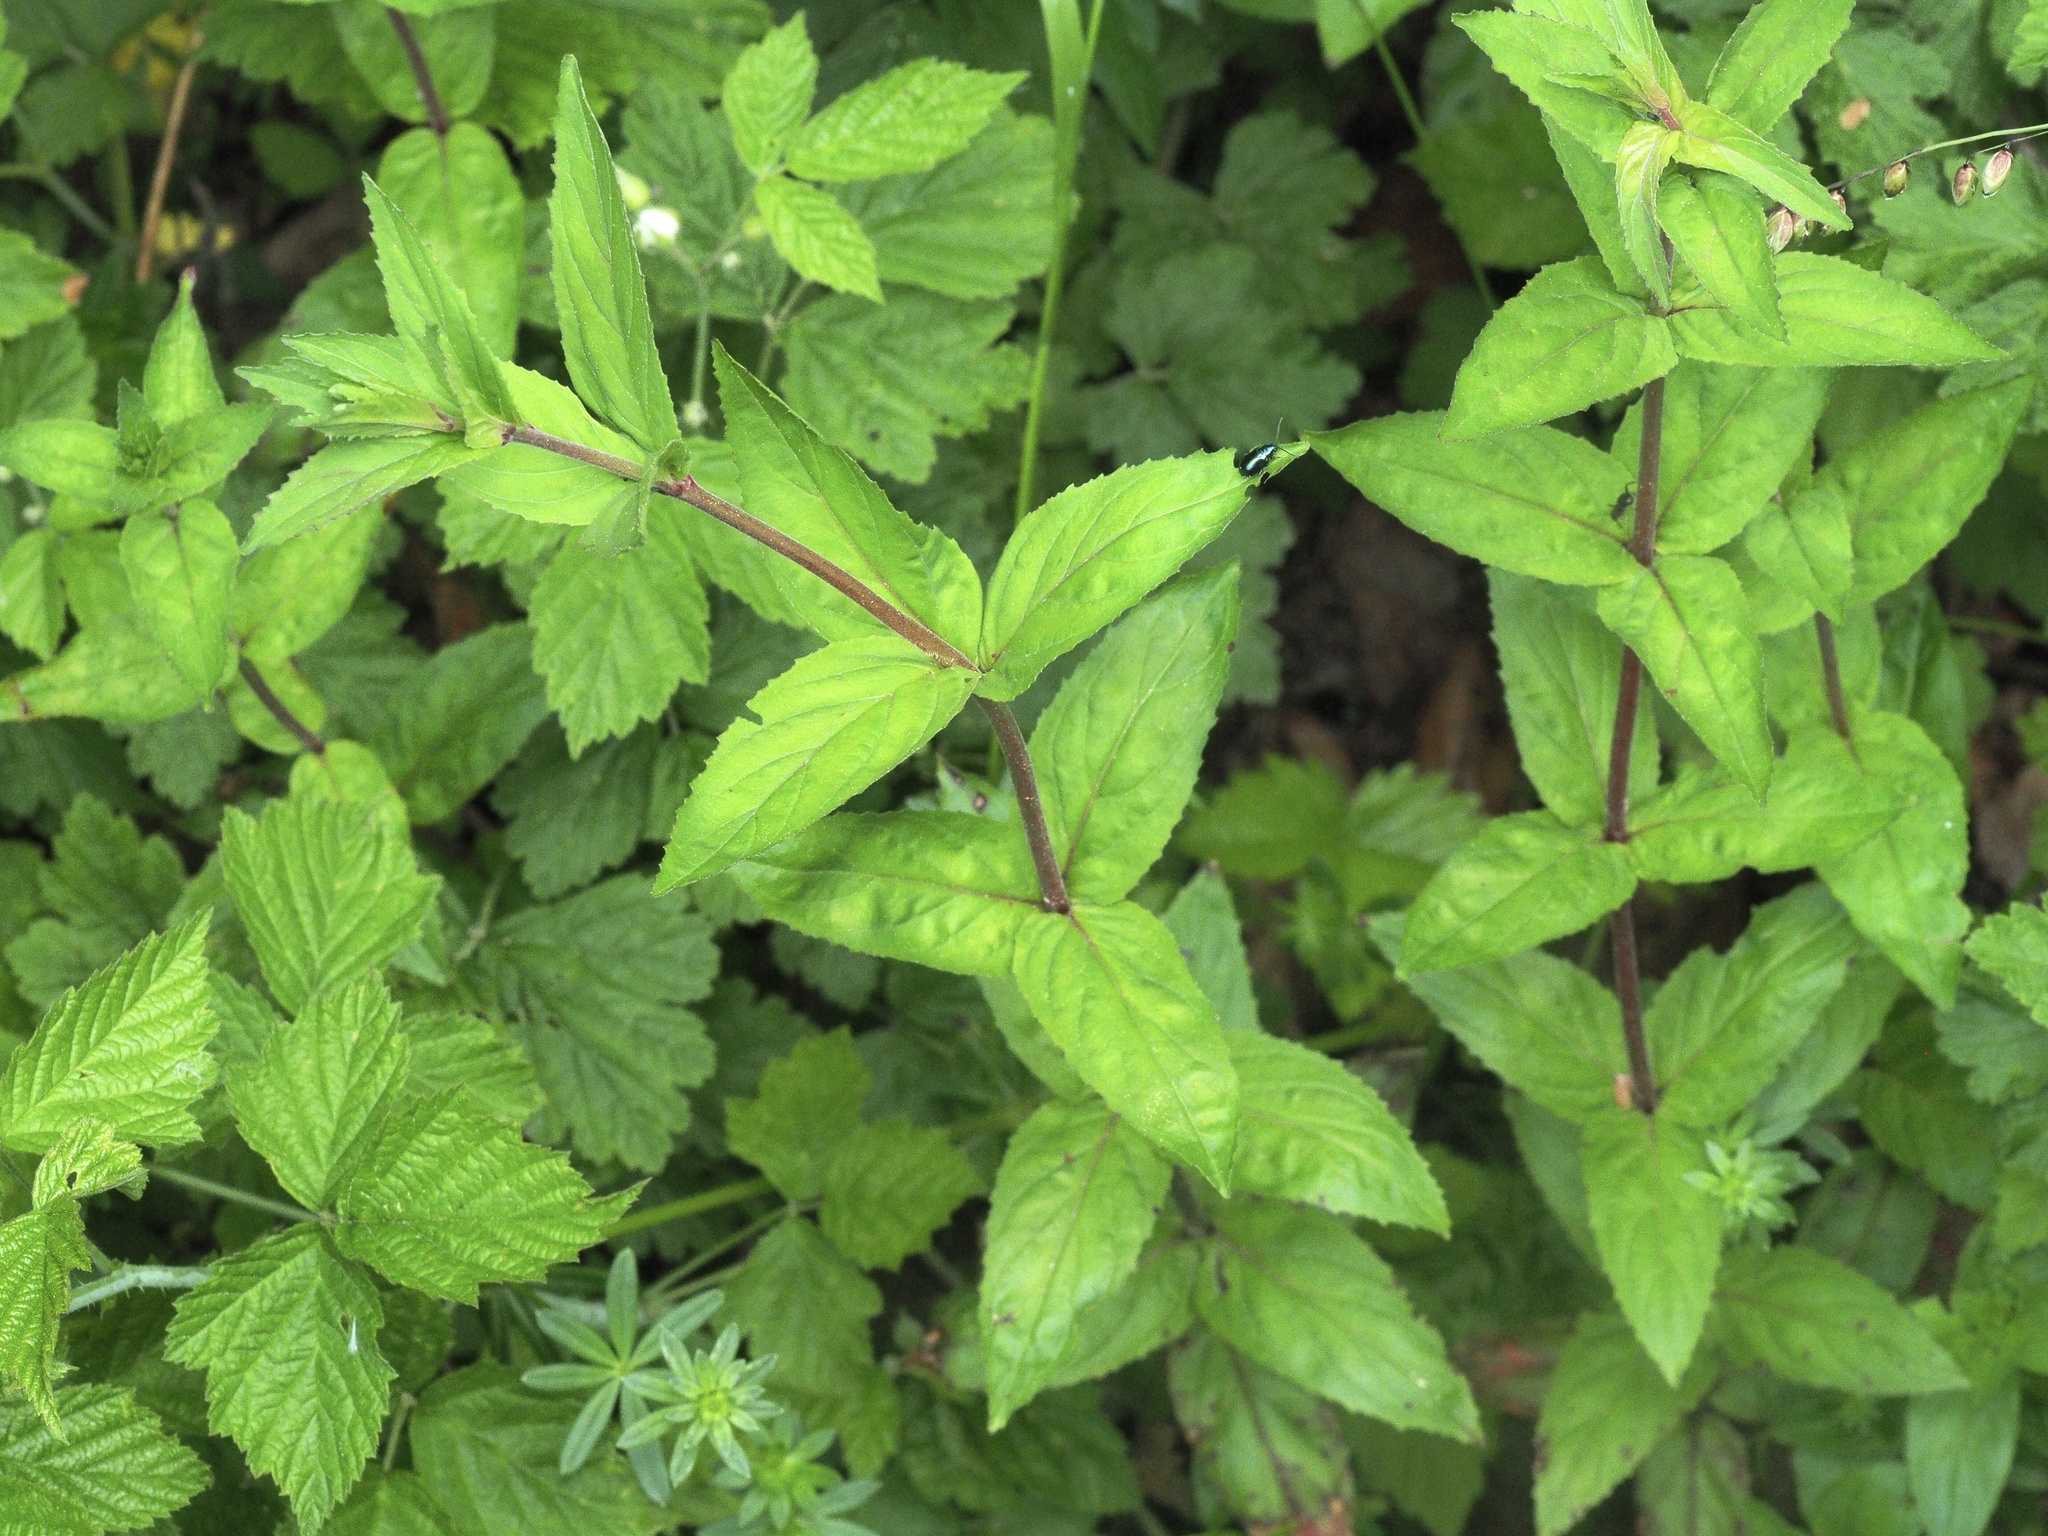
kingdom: Plantae
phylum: Tracheophyta
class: Magnoliopsida
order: Myrtales
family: Onagraceae
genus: Epilobium
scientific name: Epilobium alpestre
